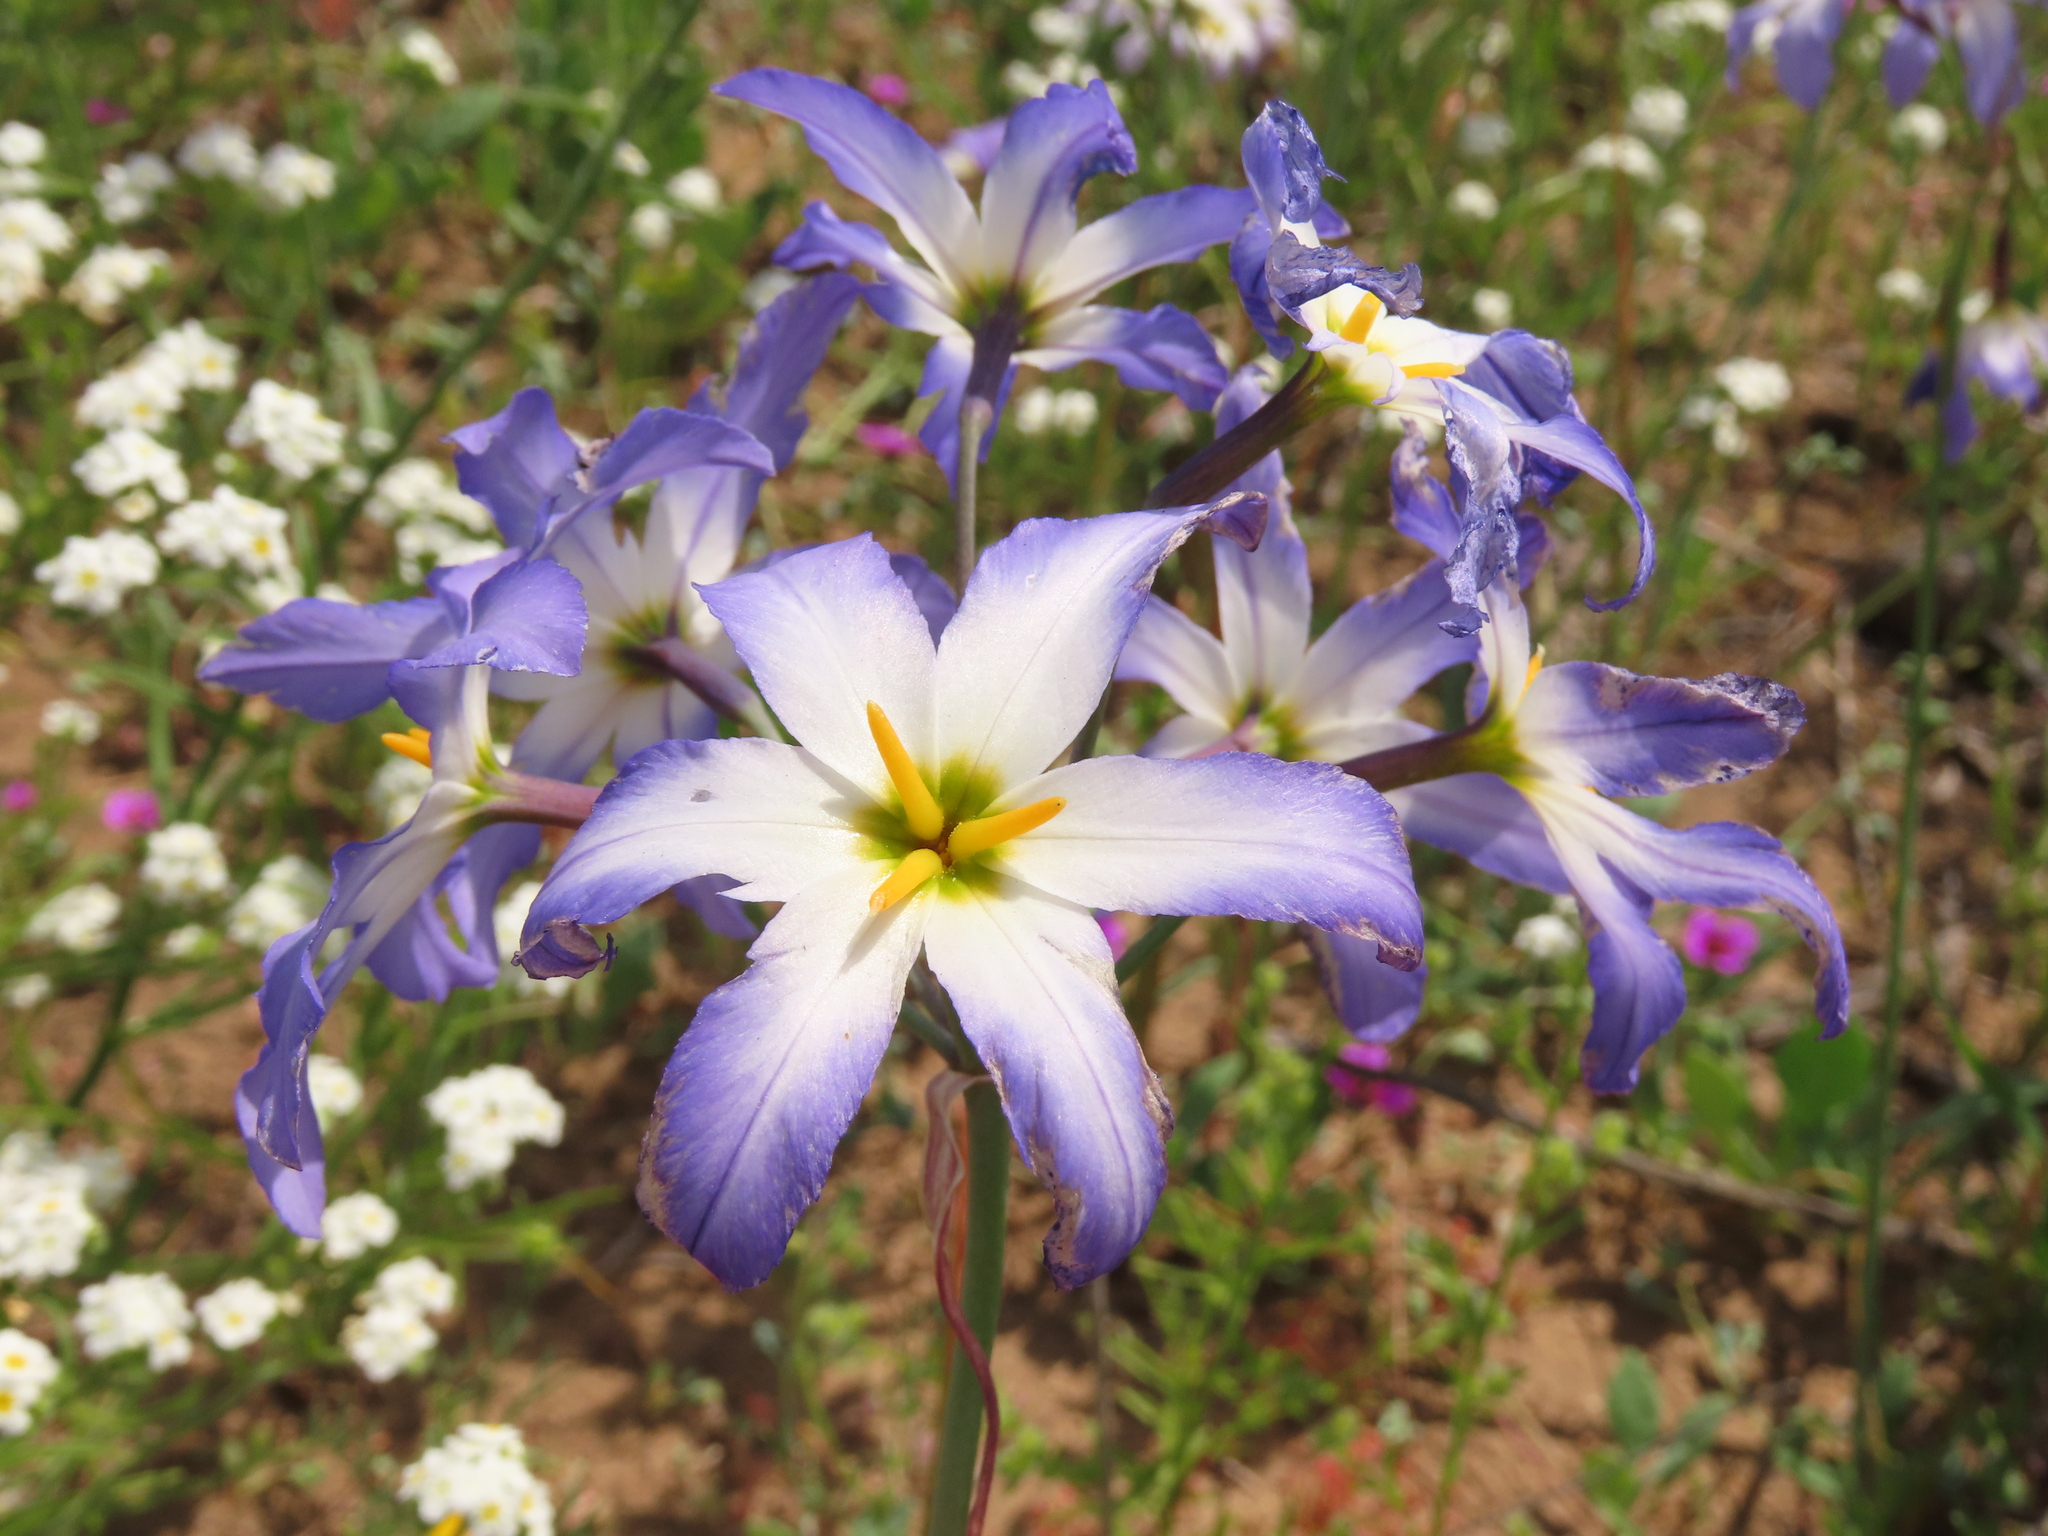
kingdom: Plantae
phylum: Tracheophyta
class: Liliopsida
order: Asparagales
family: Amaryllidaceae
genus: Leucocoryne
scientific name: Leucocoryne coquimbensis
